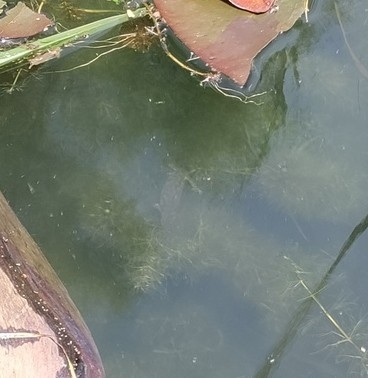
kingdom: Animalia
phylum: Chordata
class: Amphibia
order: Caudata
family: Salamandridae
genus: Ichthyosaura
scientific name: Ichthyosaura alpestris
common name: Alpine newt
